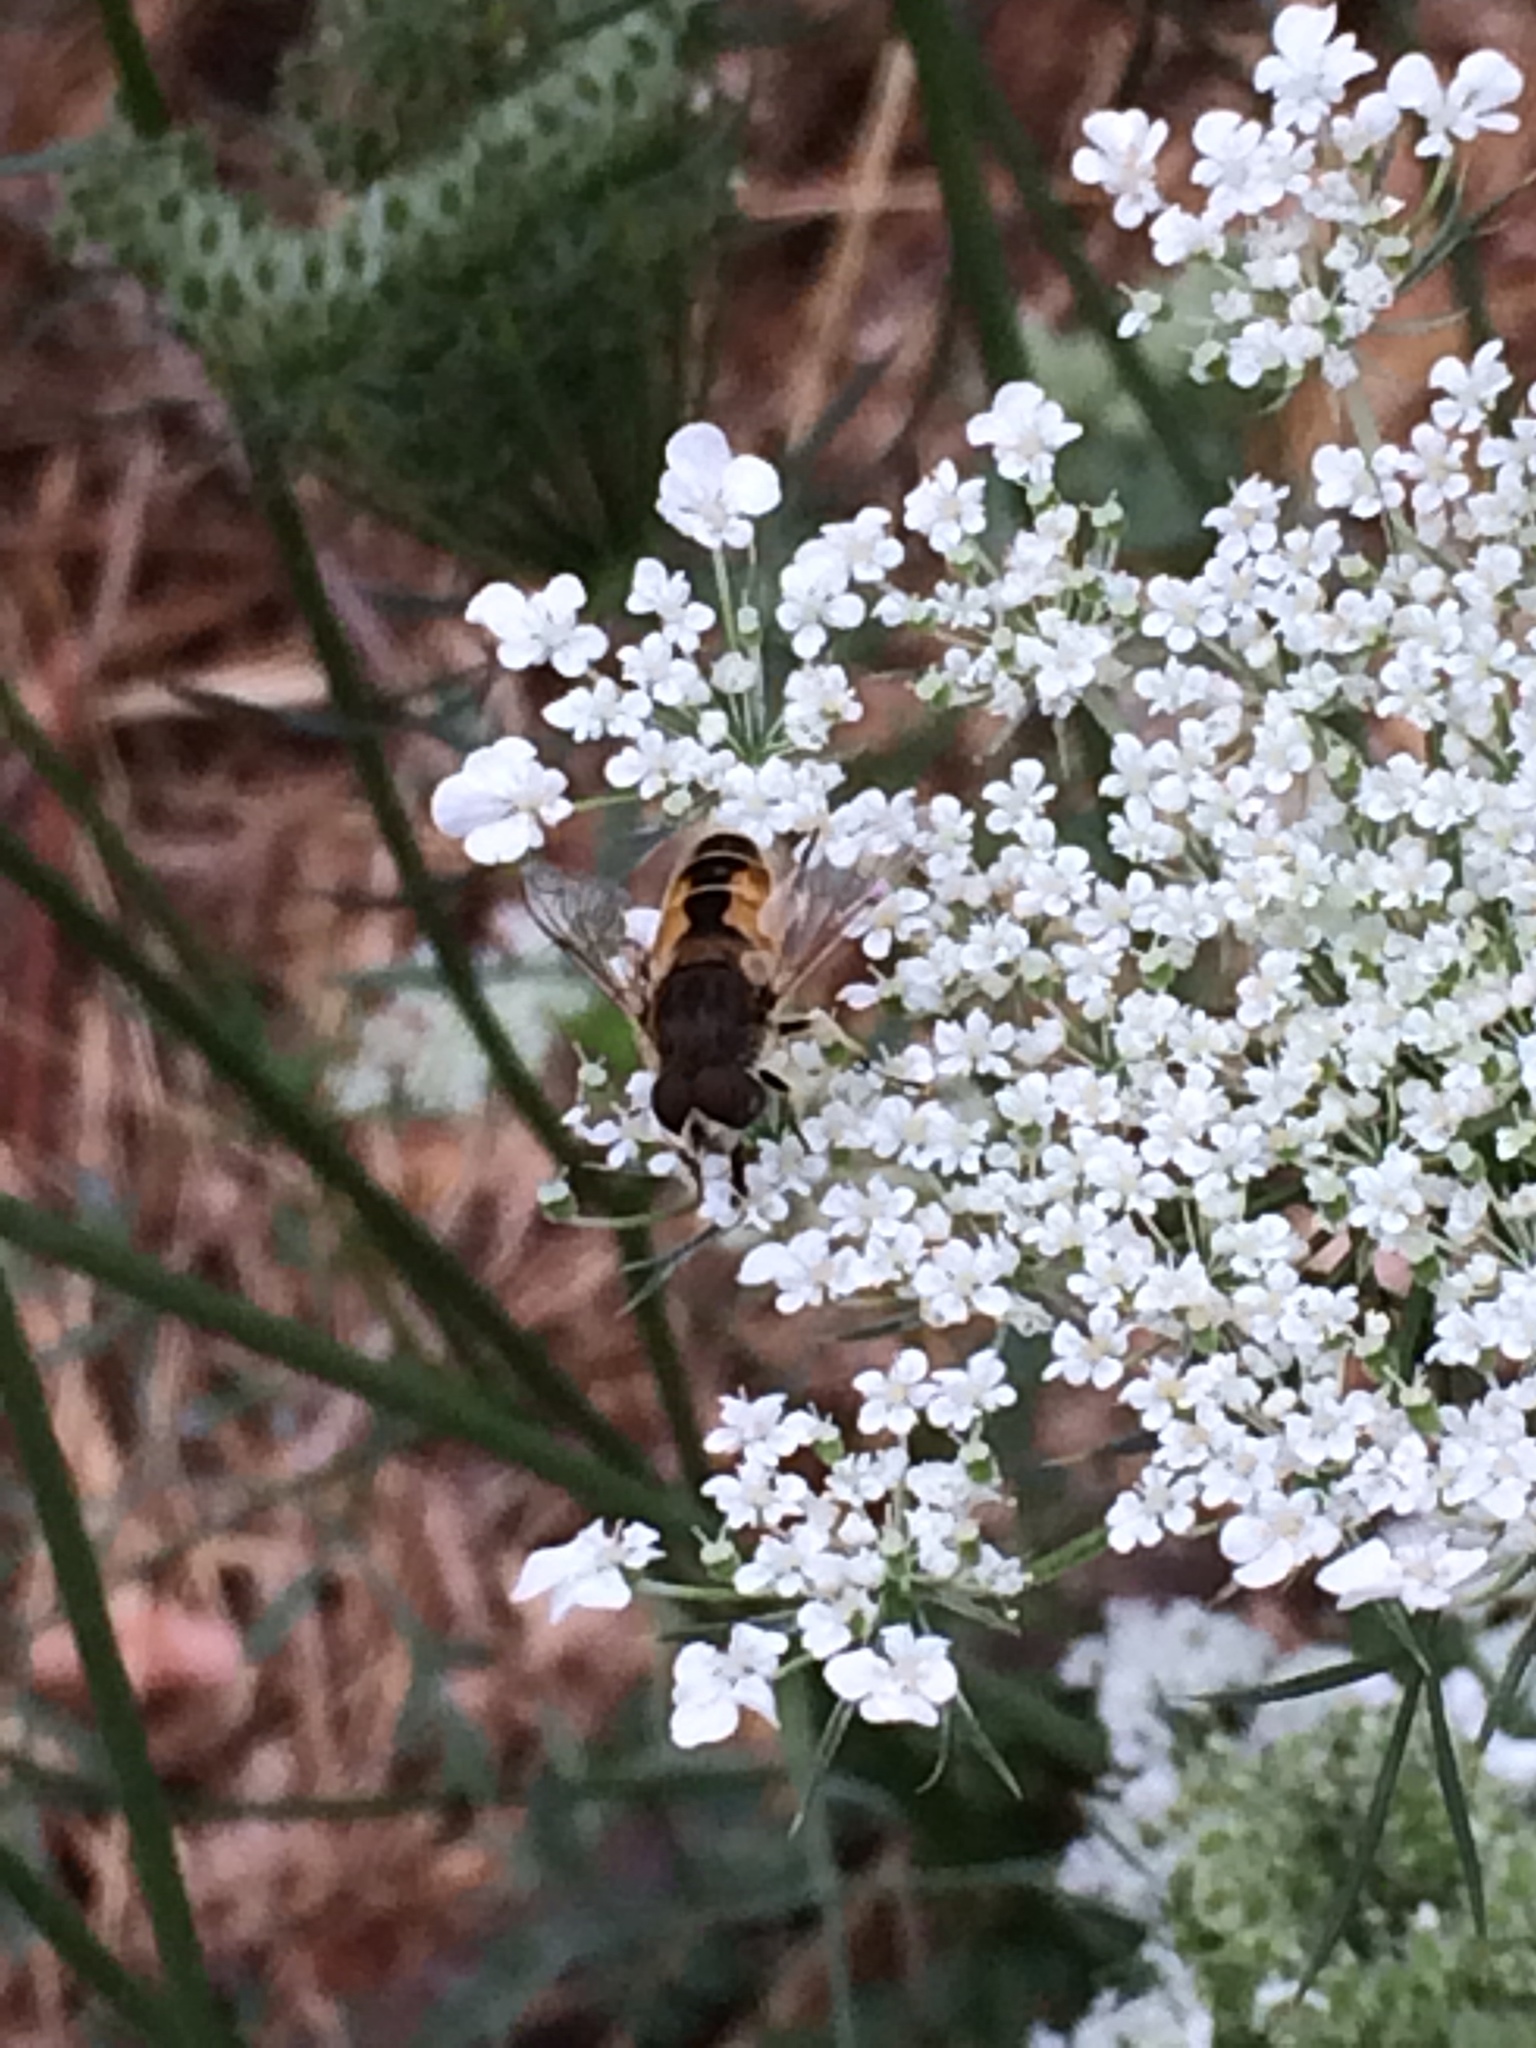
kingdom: Animalia
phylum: Arthropoda
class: Insecta
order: Diptera
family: Syrphidae
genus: Eristalis
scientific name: Eristalis arbustorum
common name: Hover fly
